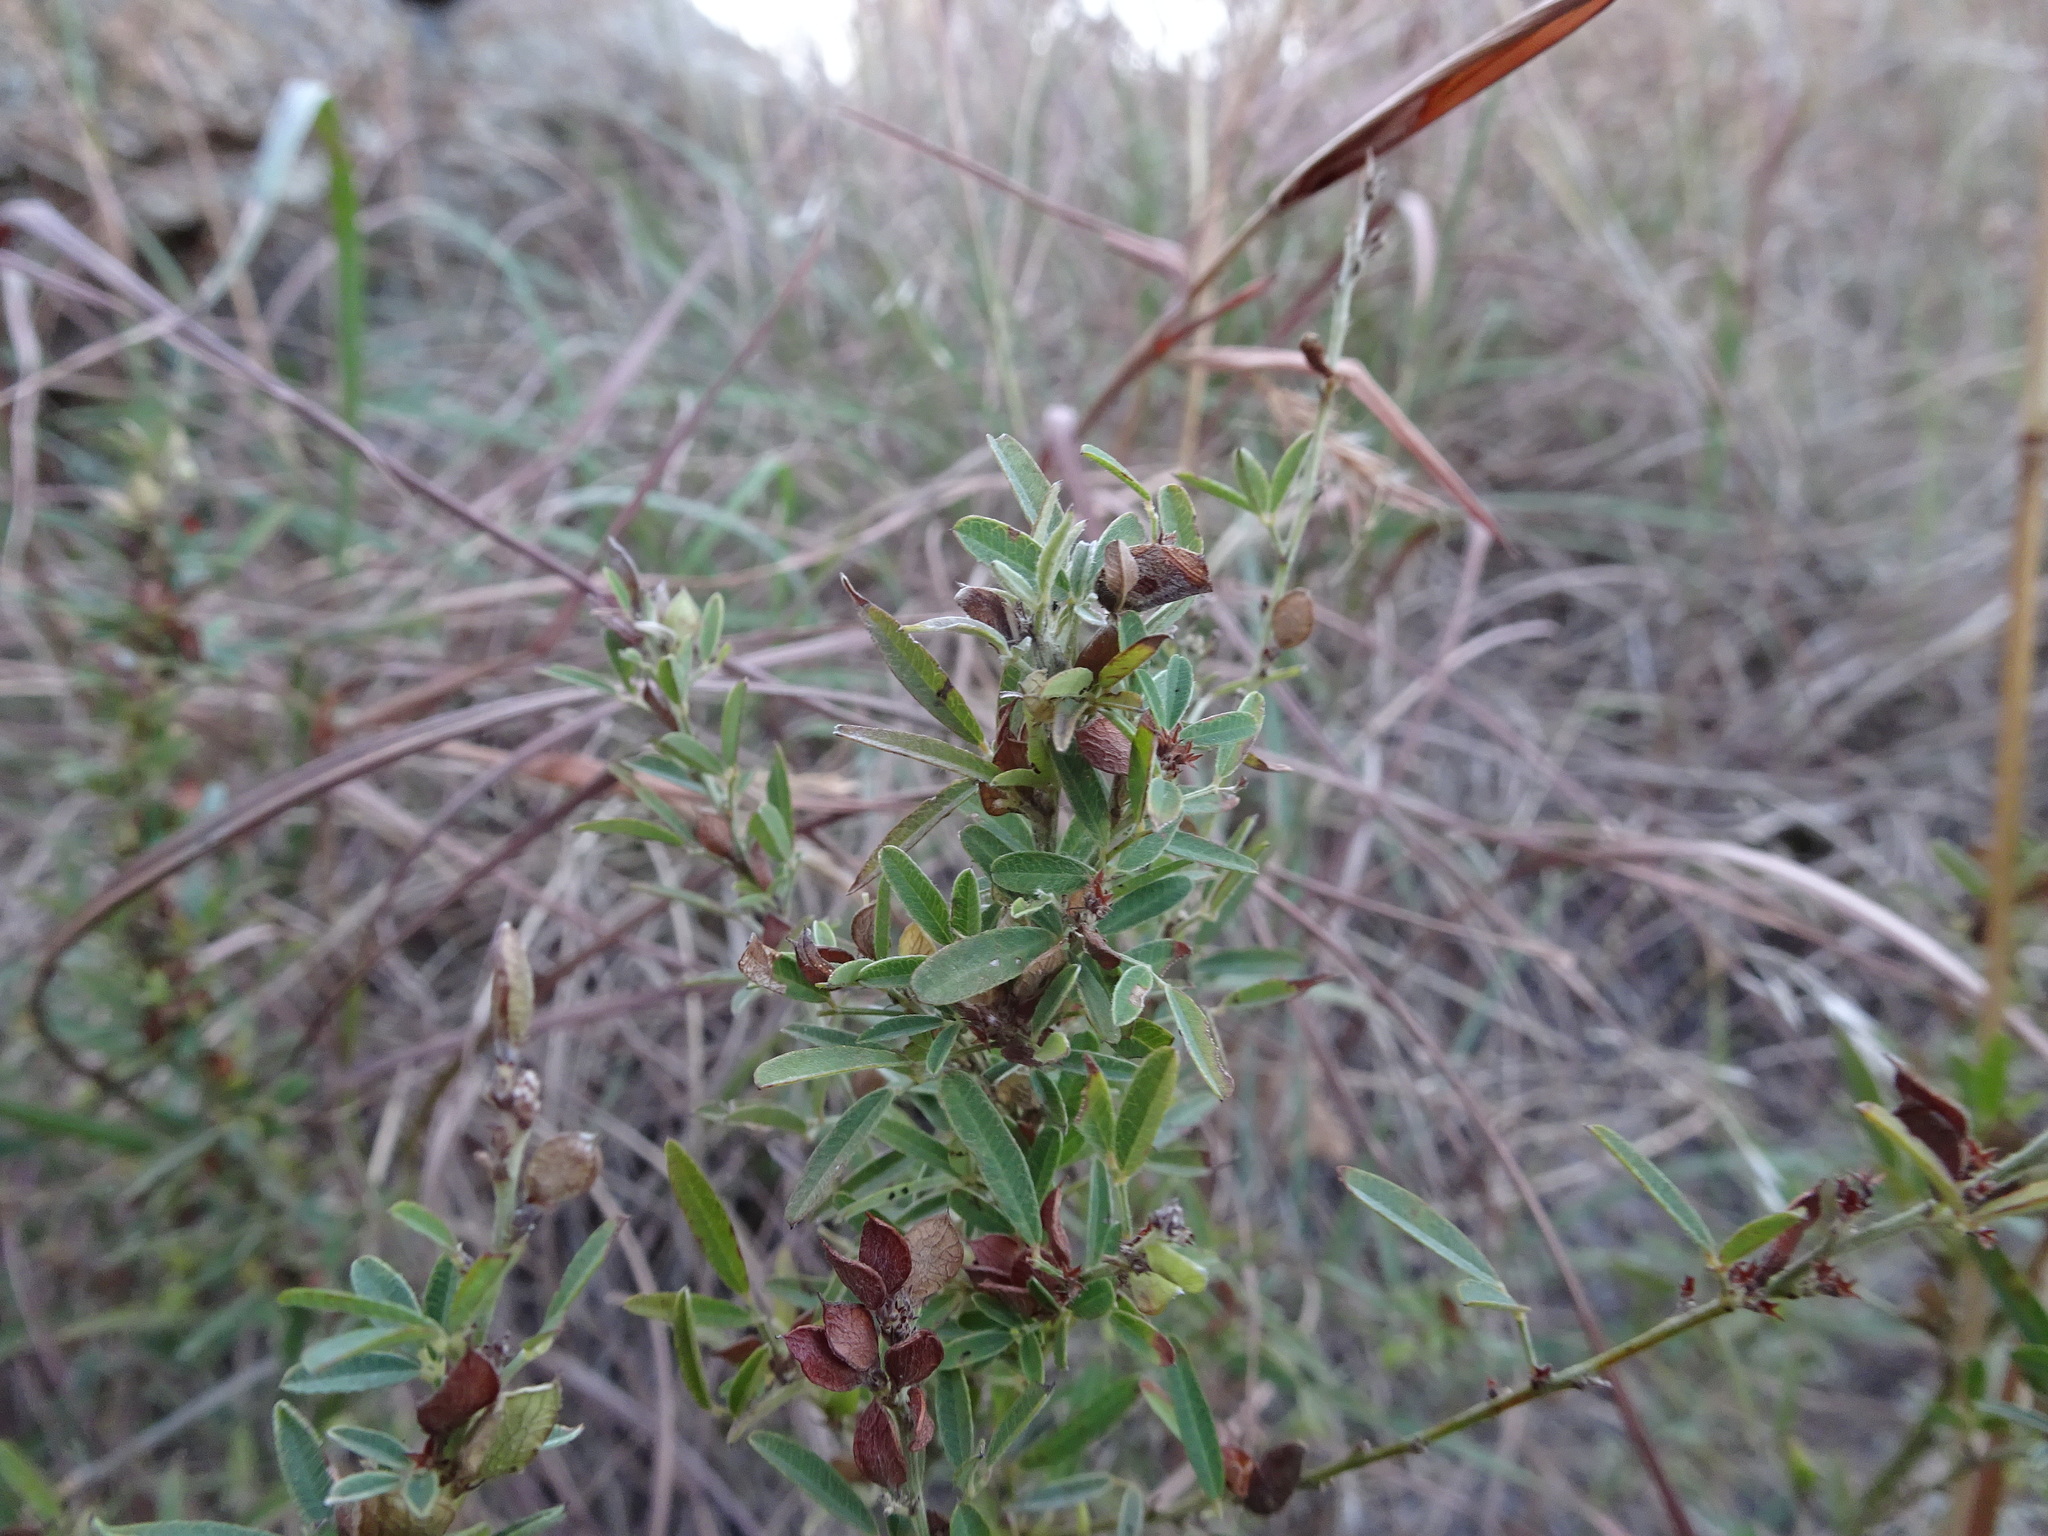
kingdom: Plantae
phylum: Tracheophyta
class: Magnoliopsida
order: Fabales
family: Fabaceae
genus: Lespedeza
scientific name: Lespedeza virginica
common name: Slender bush-clover
